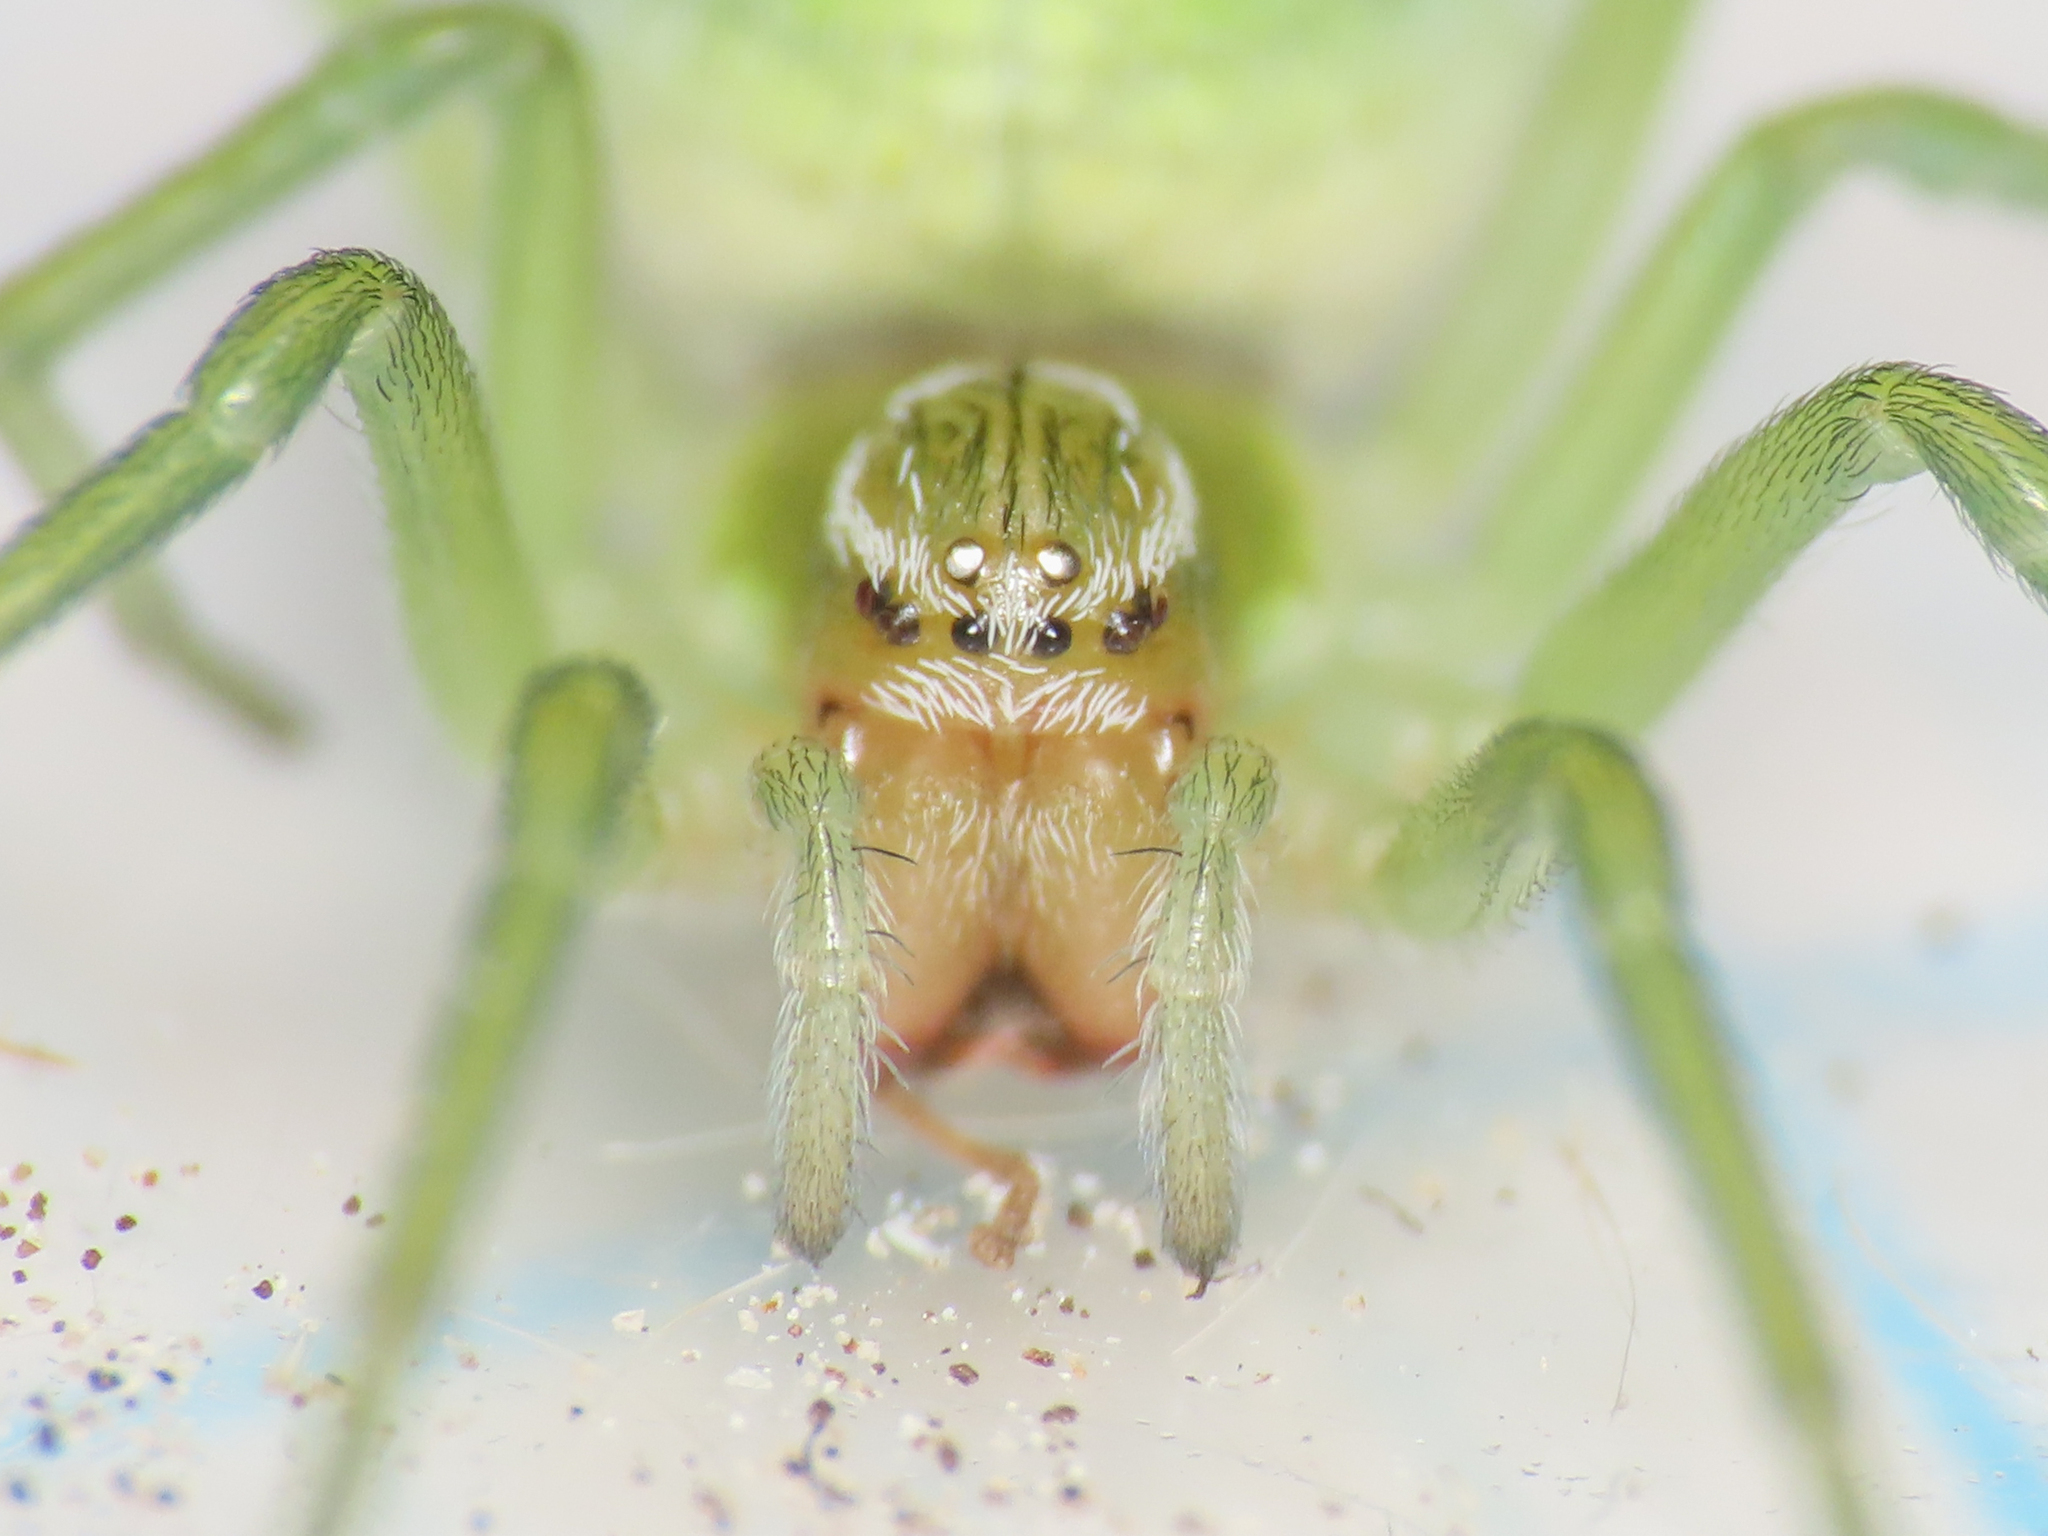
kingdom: Animalia
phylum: Arthropoda
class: Arachnida
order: Araneae
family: Dictynidae
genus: Nigma
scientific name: Nigma walckenaeri
